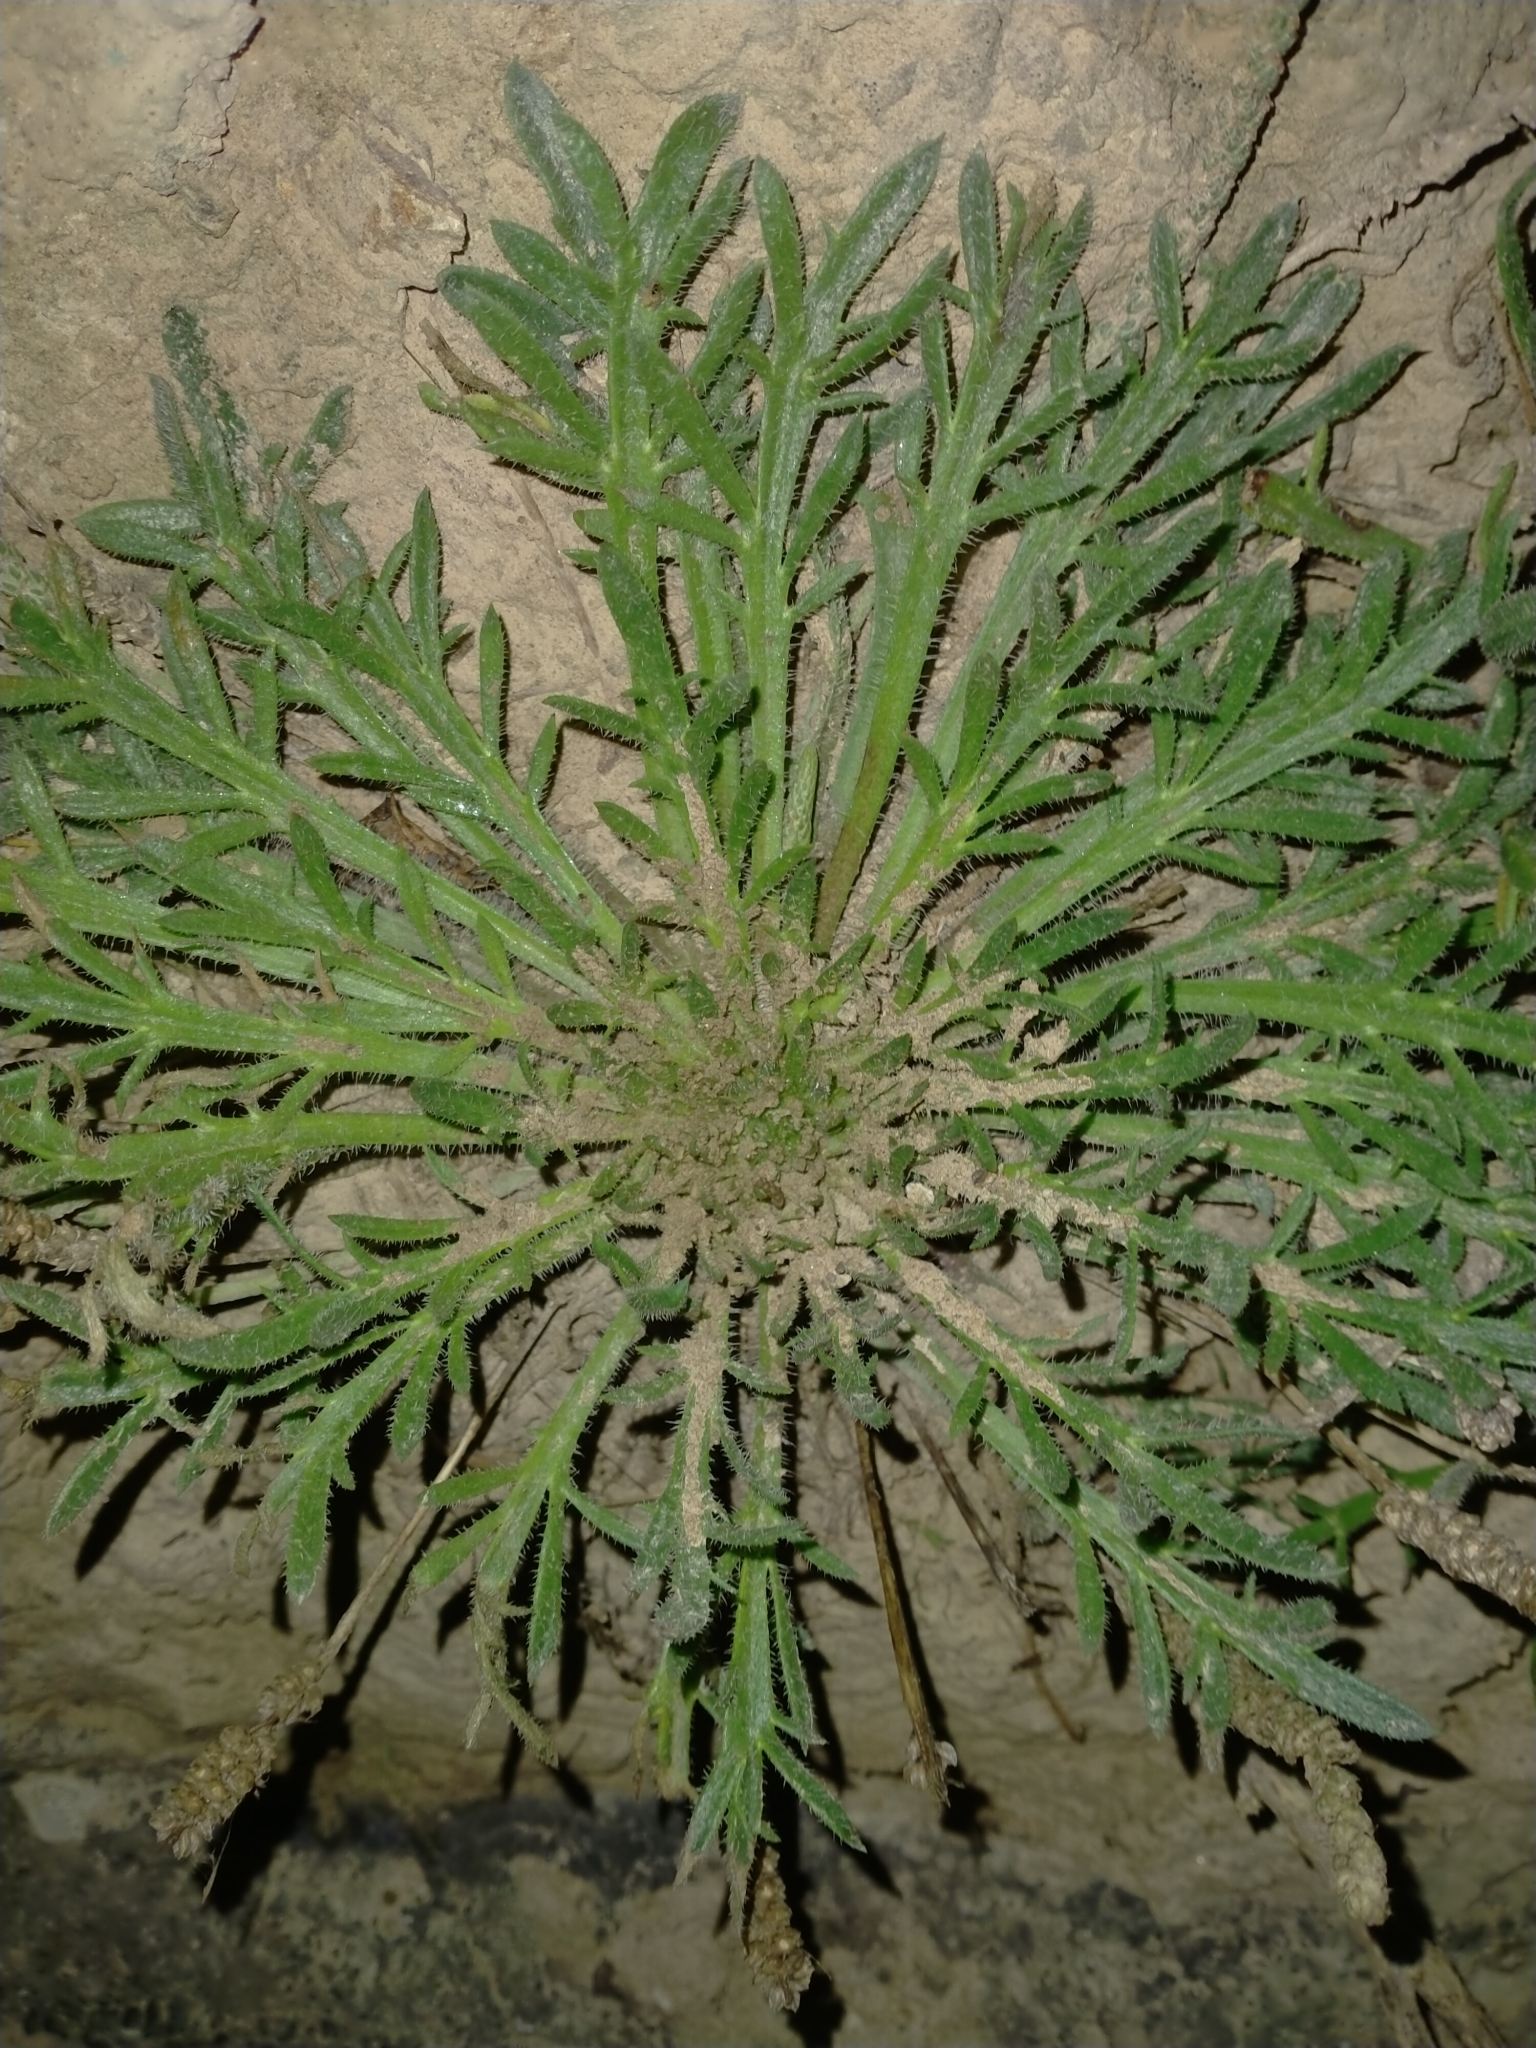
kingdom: Plantae
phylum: Tracheophyta
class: Magnoliopsida
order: Lamiales
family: Plantaginaceae
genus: Plantago
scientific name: Plantago coronopus
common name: Buck's-horn plantain
